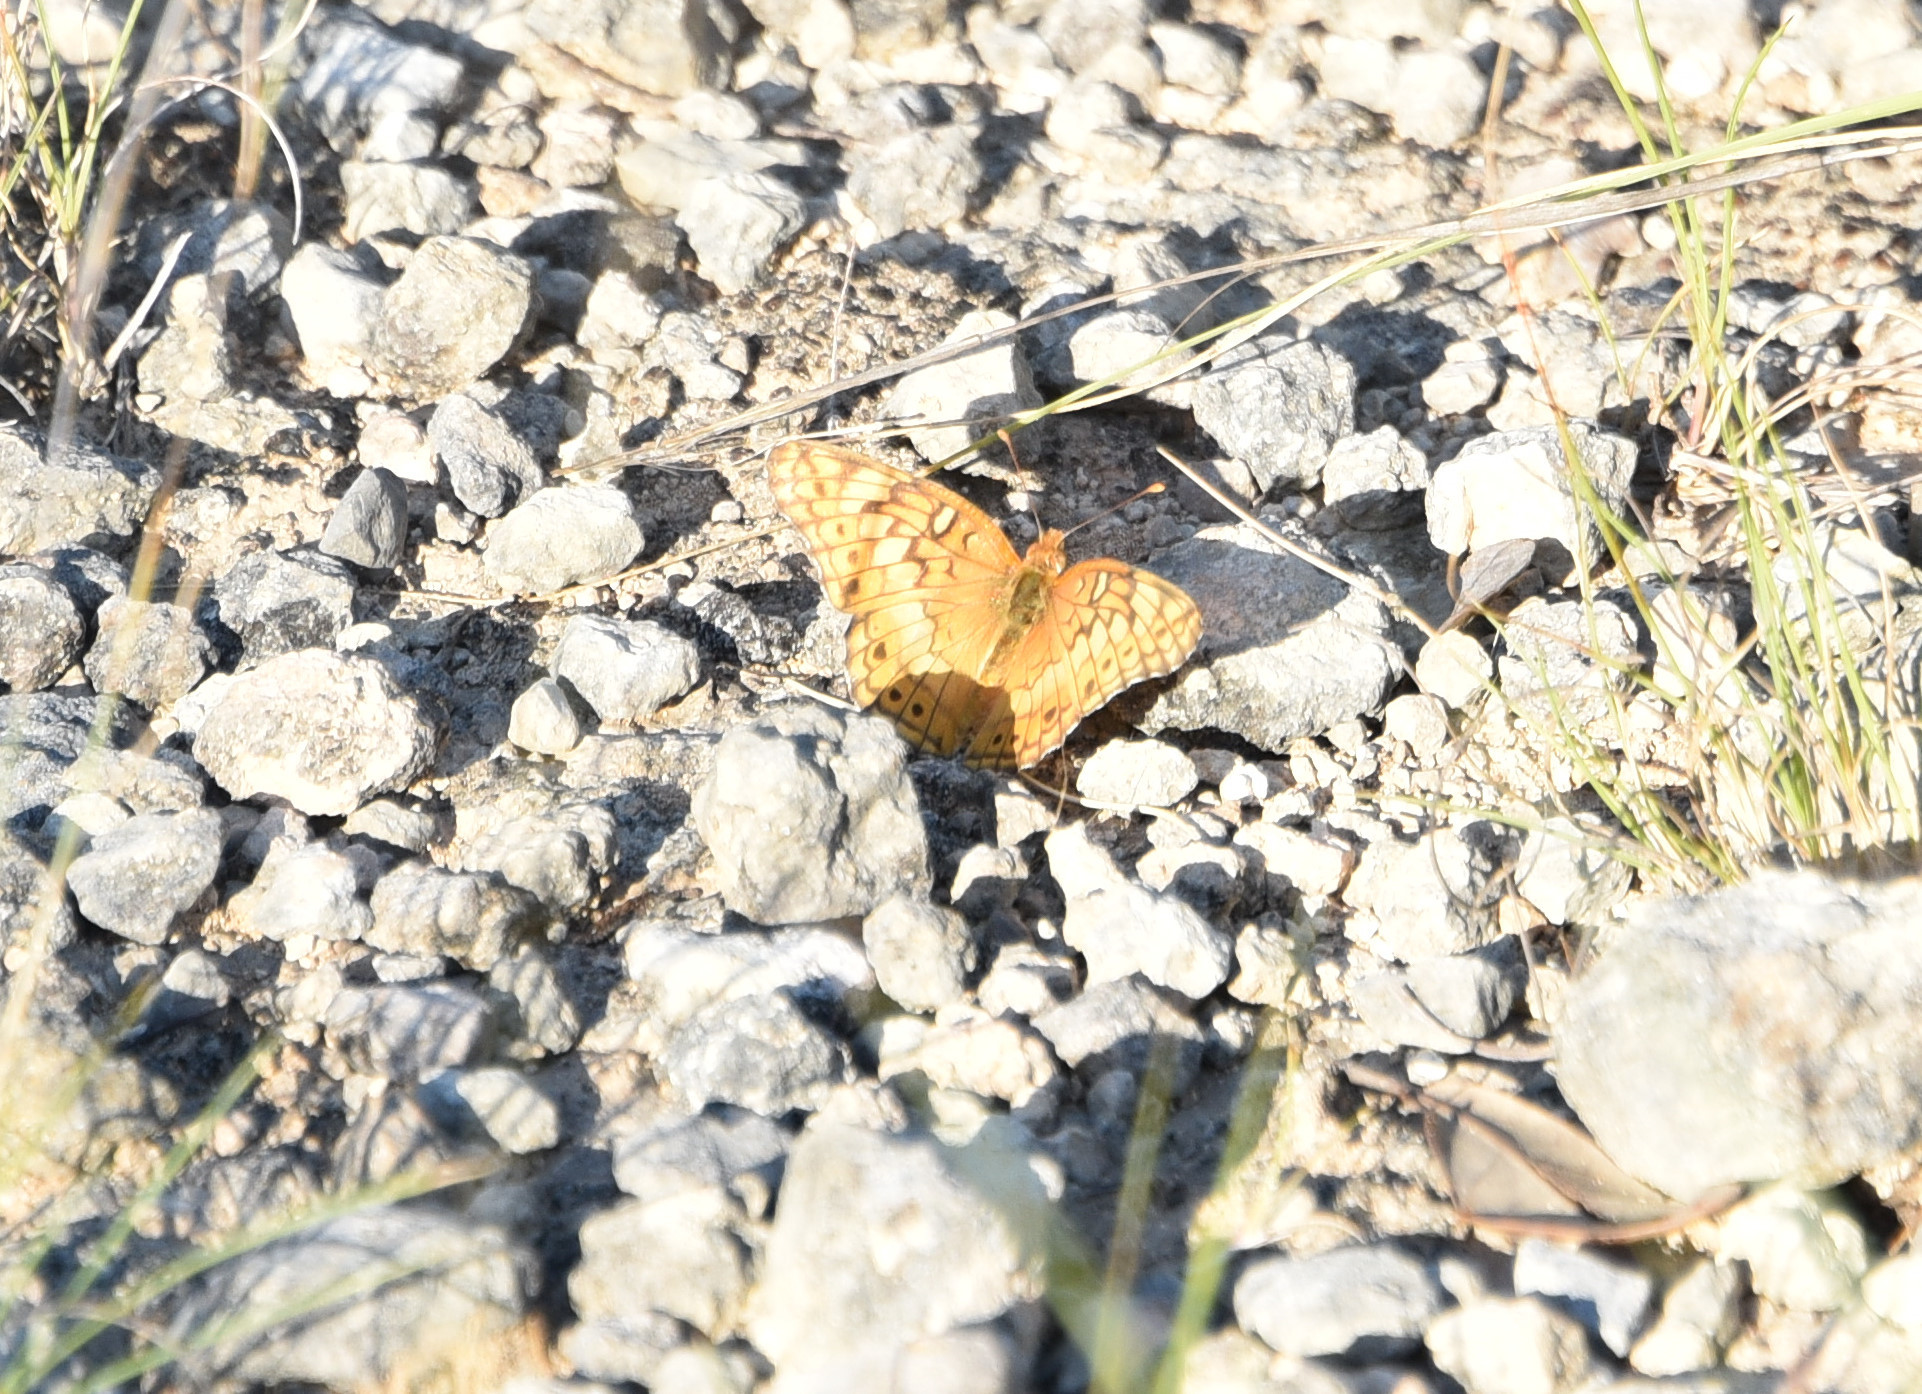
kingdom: Animalia
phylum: Arthropoda
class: Insecta
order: Lepidoptera
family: Nymphalidae
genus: Euptoieta
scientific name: Euptoieta claudia
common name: Variegated fritillary
